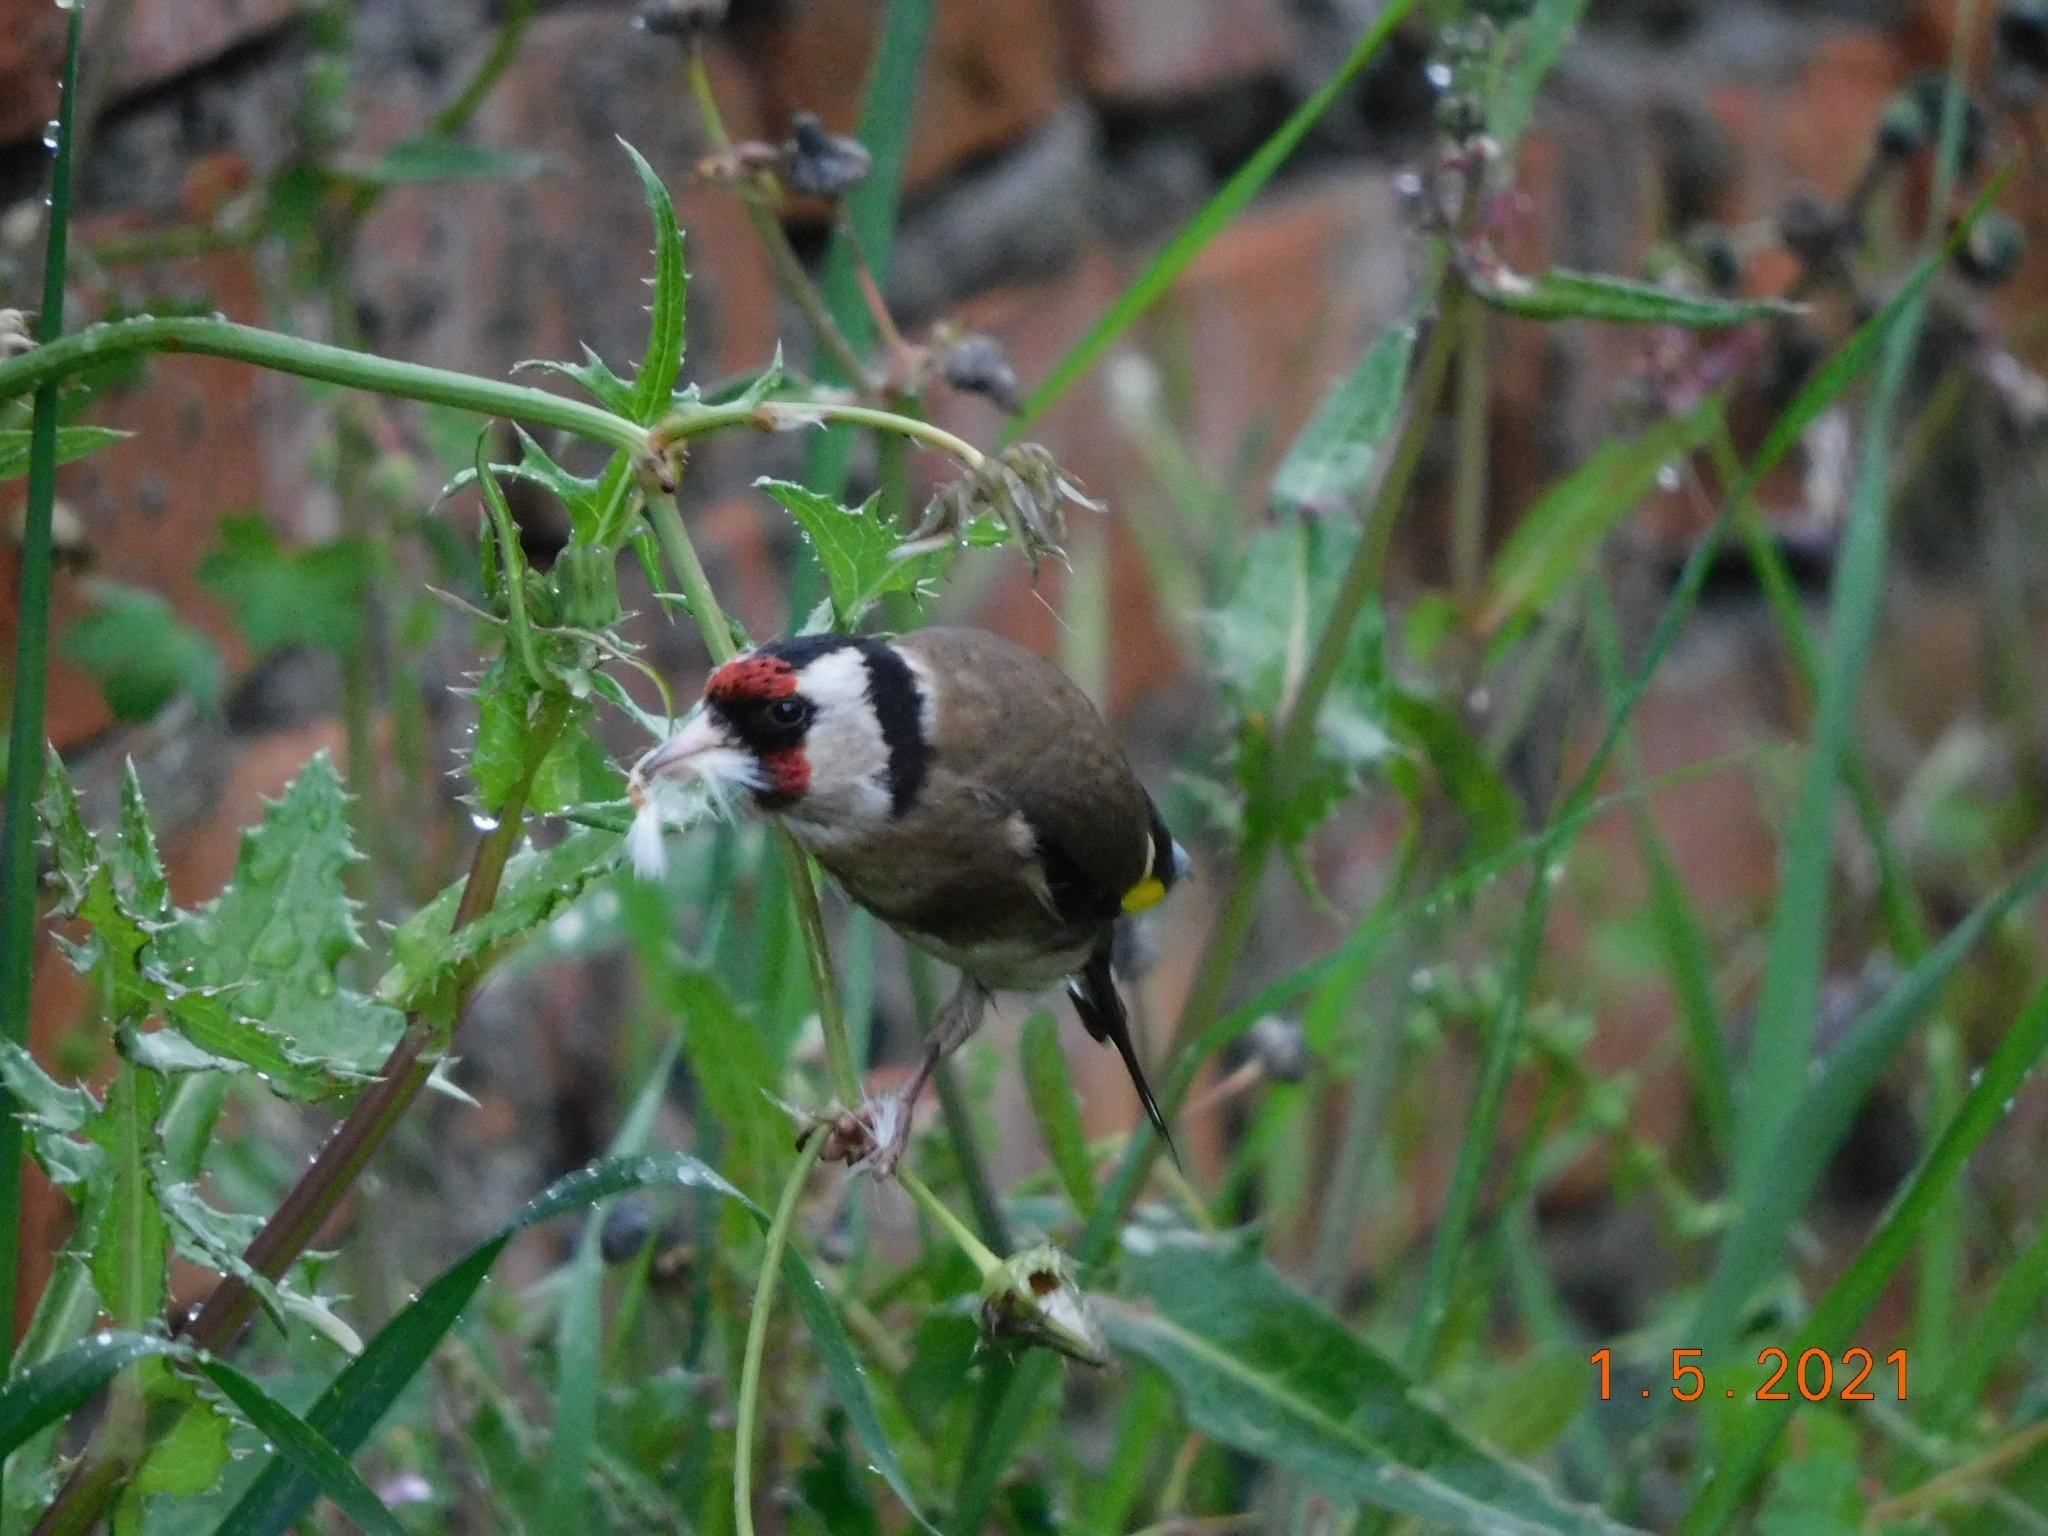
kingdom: Animalia
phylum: Chordata
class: Aves
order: Passeriformes
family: Fringillidae
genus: Carduelis
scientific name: Carduelis carduelis
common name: European goldfinch
